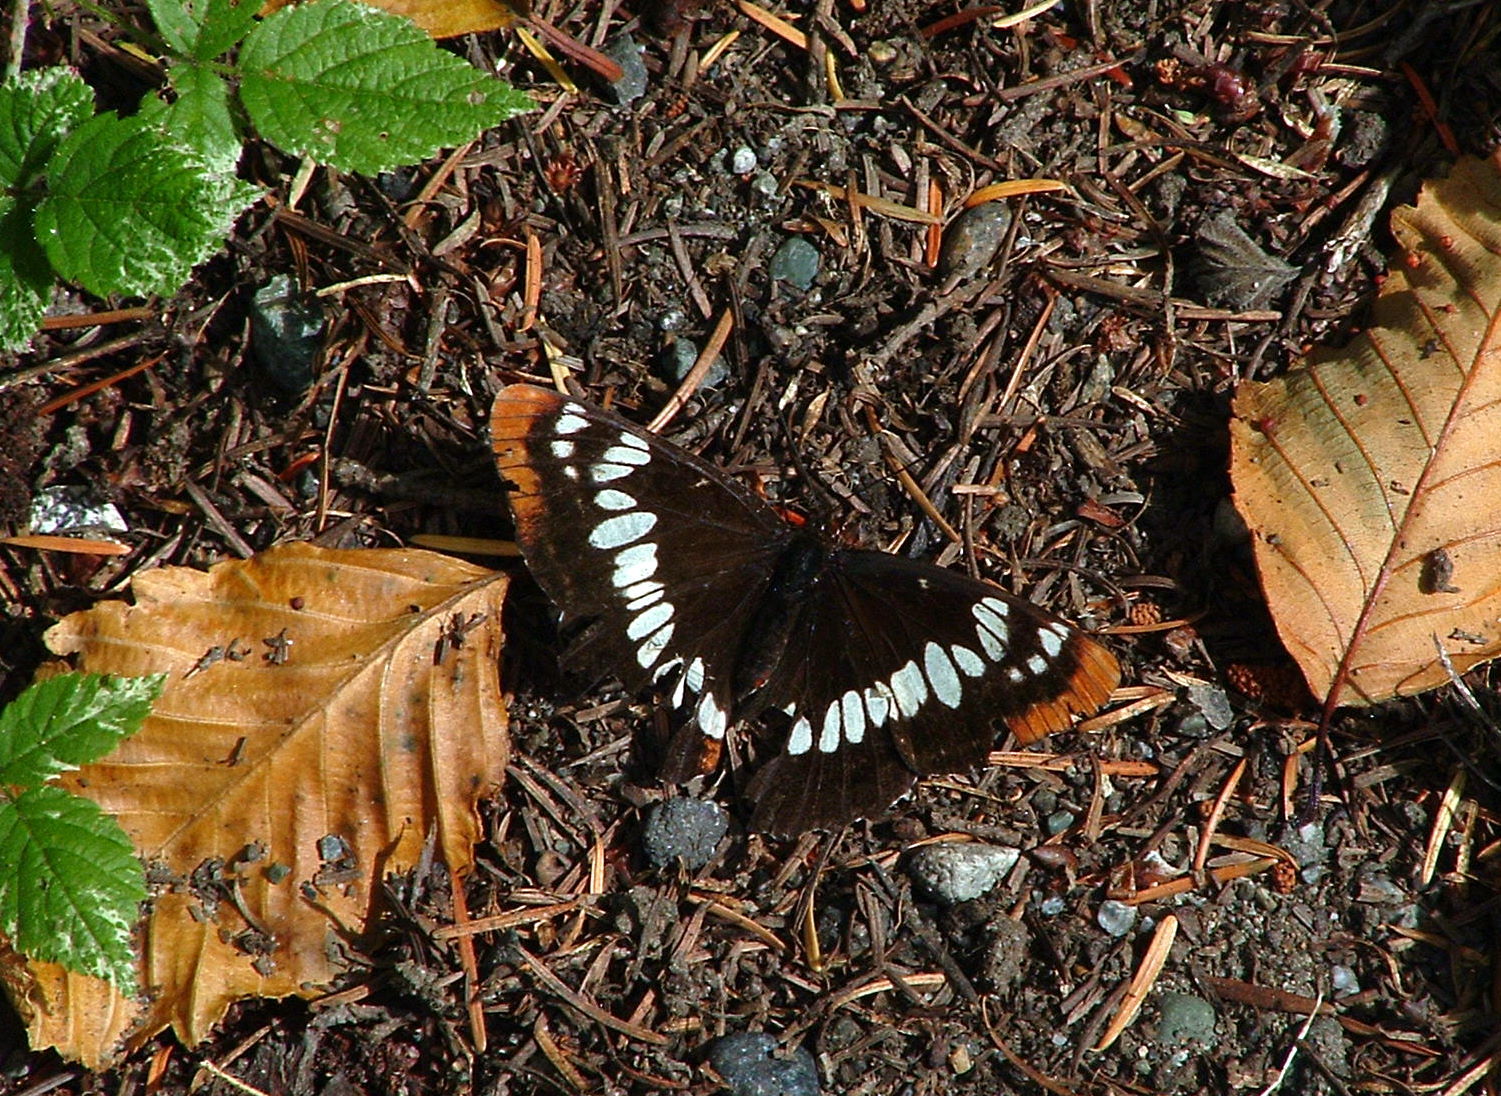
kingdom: Animalia
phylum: Arthropoda
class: Insecta
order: Lepidoptera
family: Nymphalidae
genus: Limenitis
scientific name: Limenitis lorquini
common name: Lorquin's admiral
